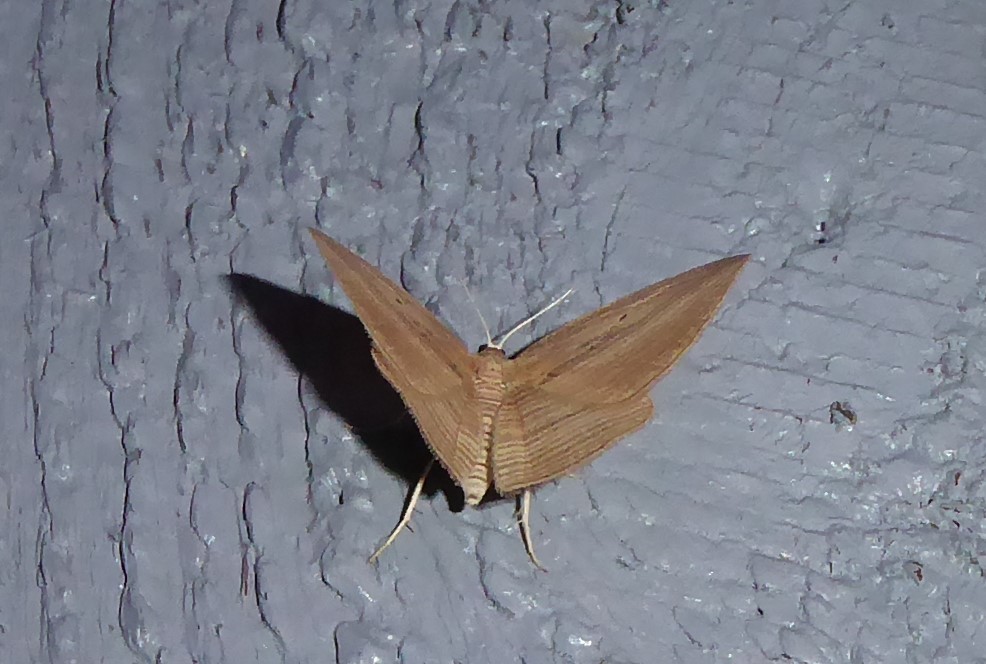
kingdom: Animalia
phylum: Arthropoda
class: Insecta
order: Lepidoptera
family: Geometridae
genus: Epiphryne
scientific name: Epiphryne verriculata
